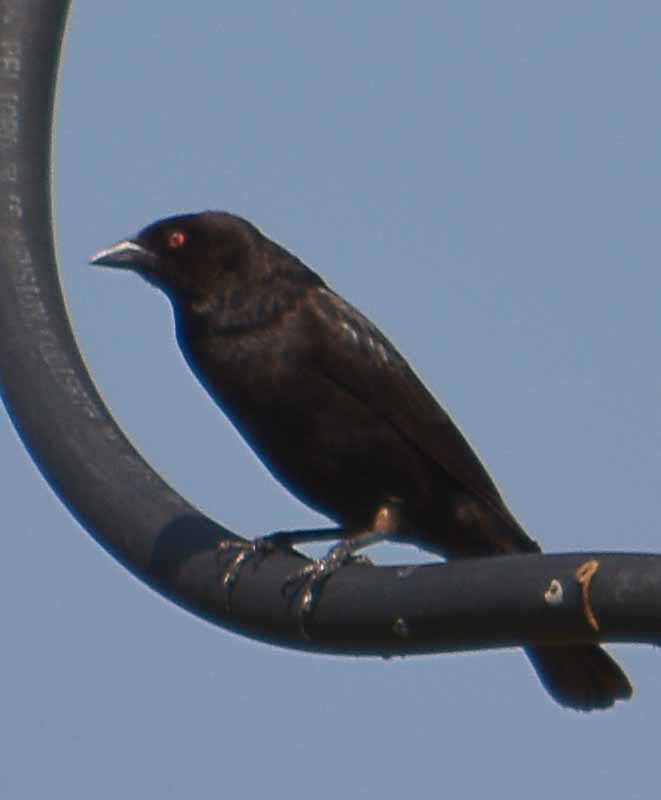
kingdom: Animalia
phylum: Chordata
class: Aves
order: Passeriformes
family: Icteridae
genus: Molothrus
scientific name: Molothrus aeneus
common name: Bronzed cowbird
